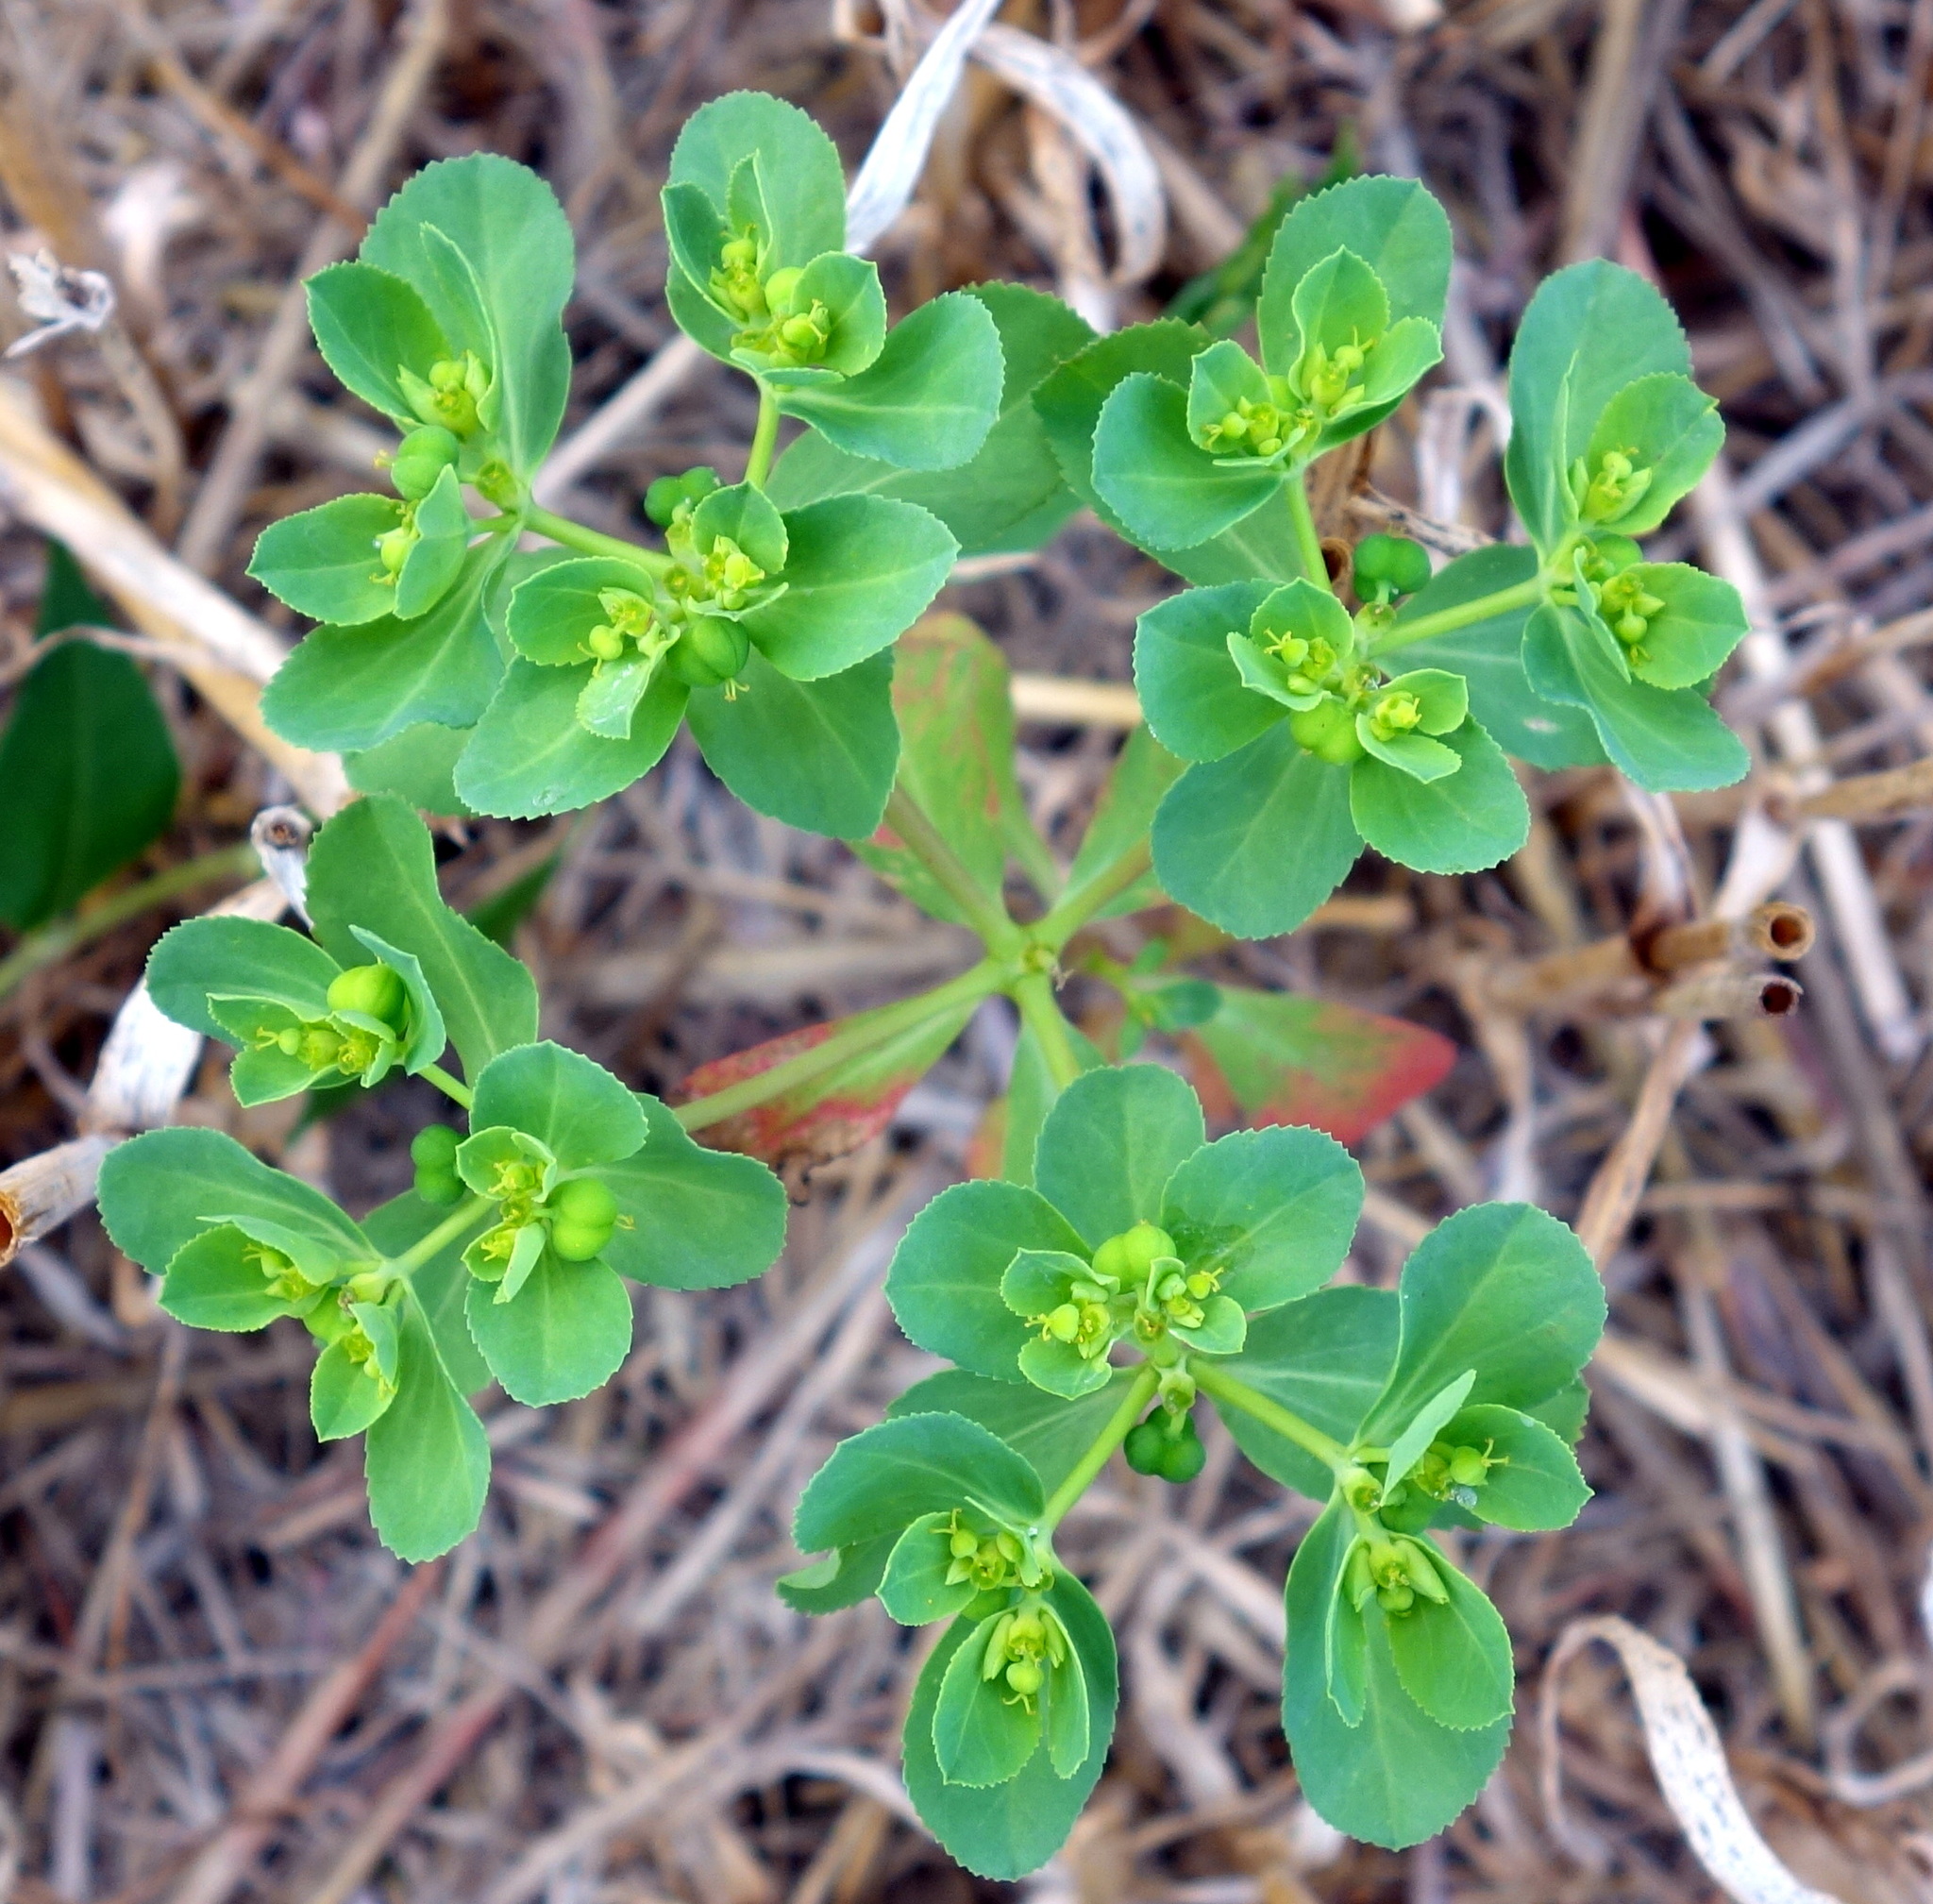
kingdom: Plantae
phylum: Tracheophyta
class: Magnoliopsida
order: Malpighiales
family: Euphorbiaceae
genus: Euphorbia
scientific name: Euphorbia helioscopia
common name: Sun spurge
